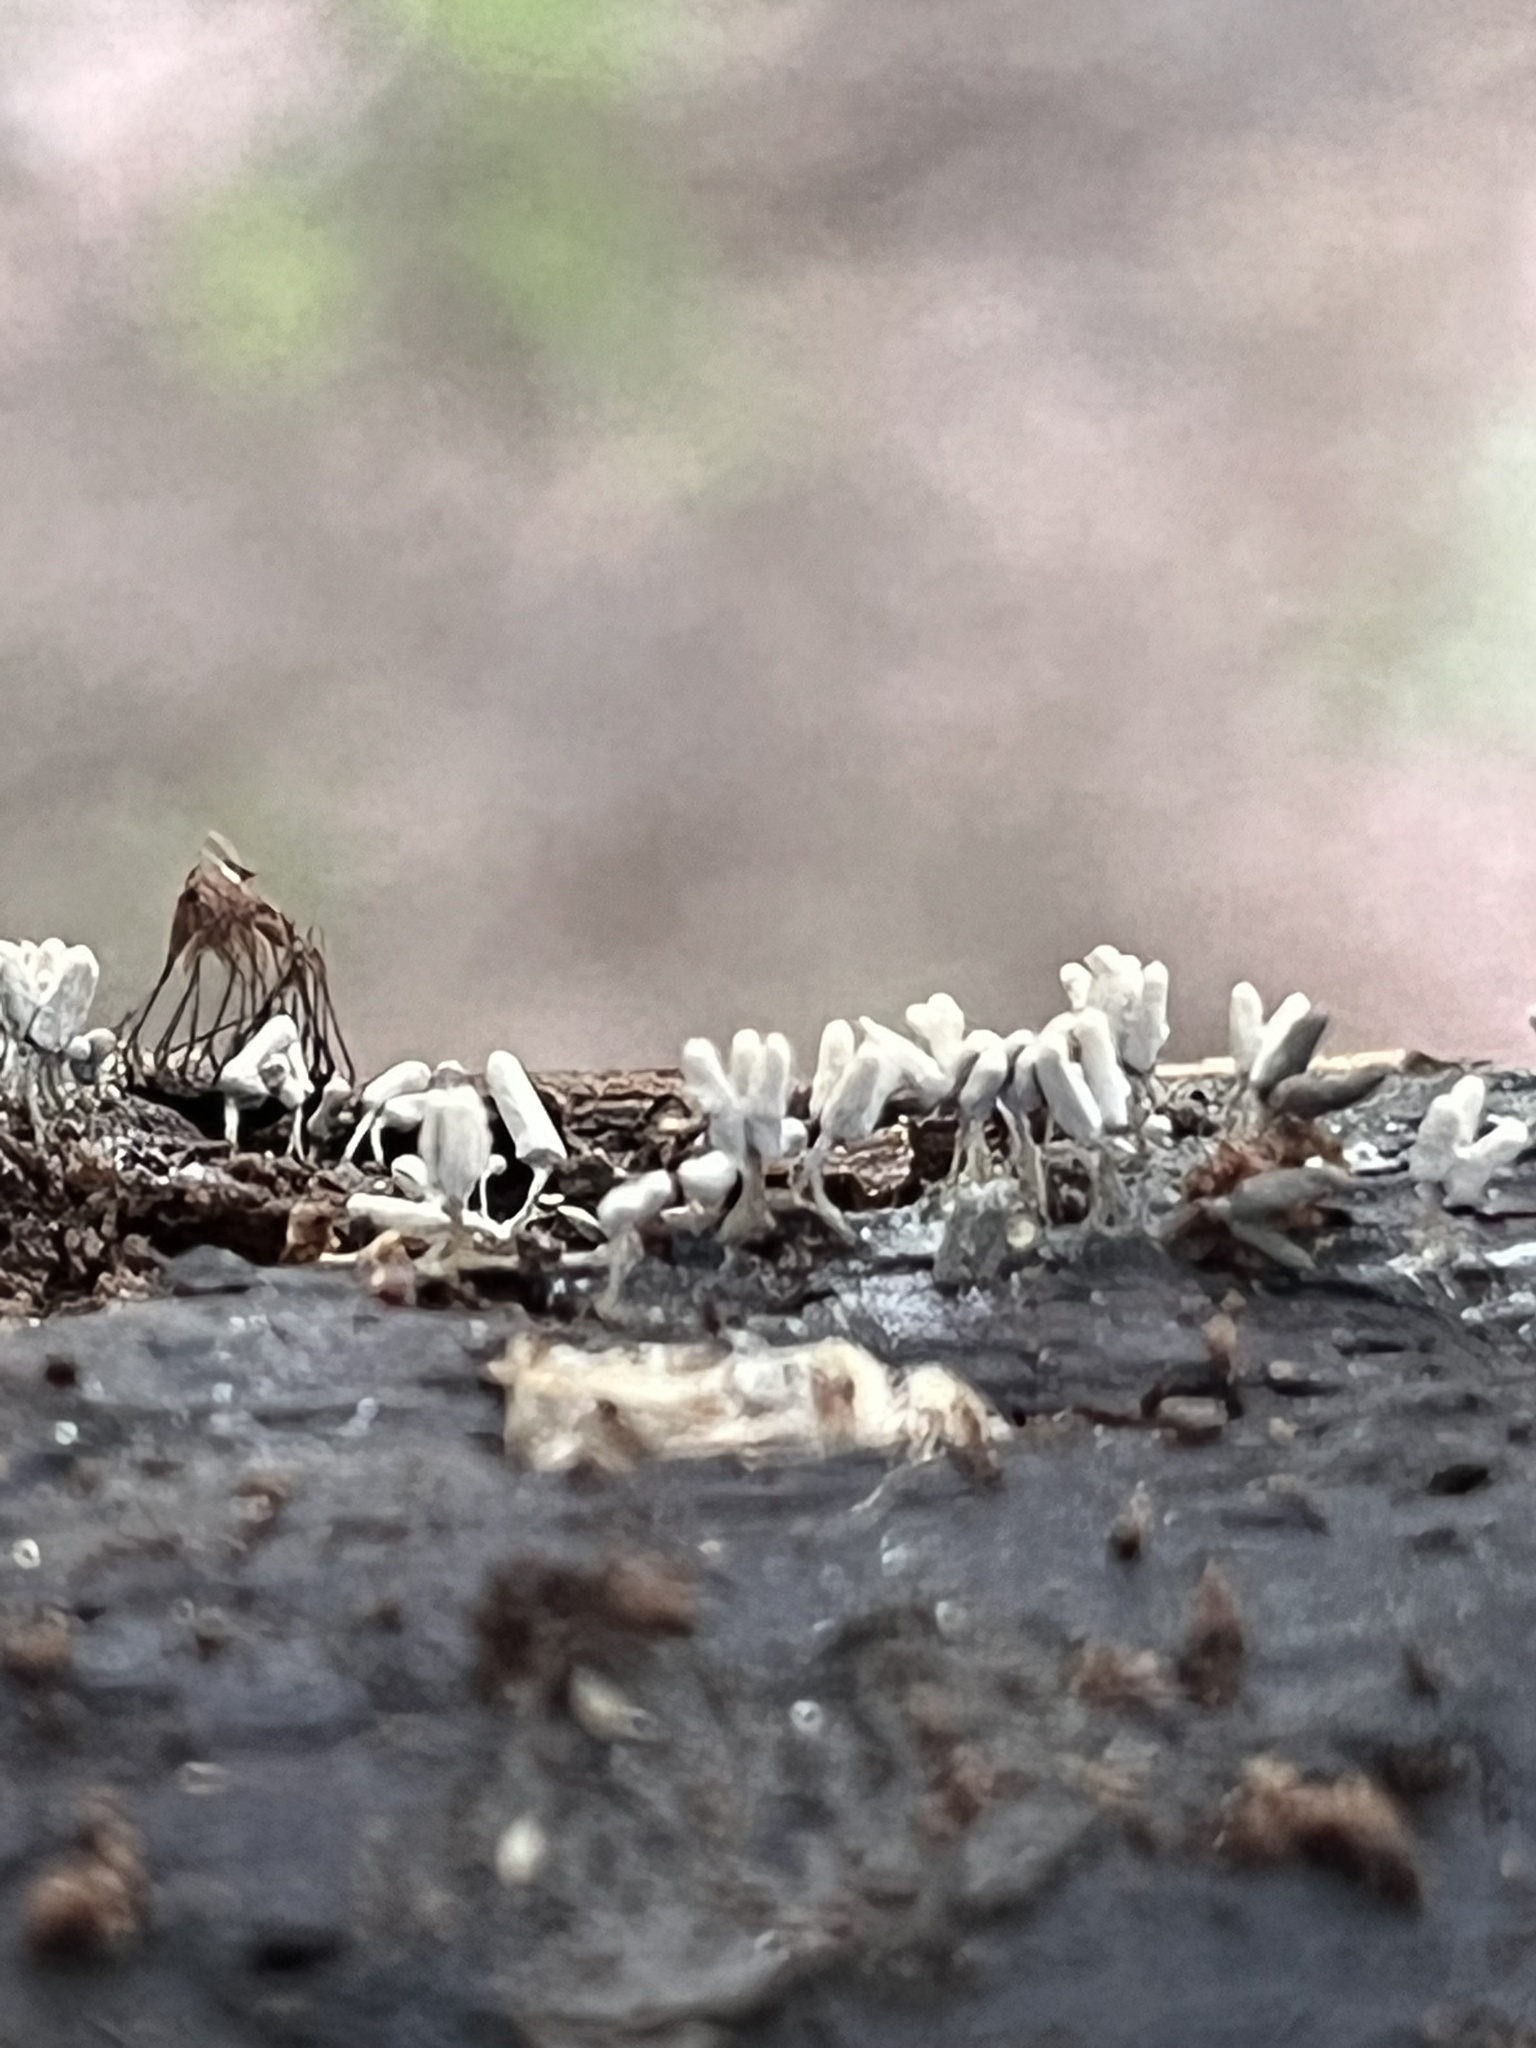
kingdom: Protozoa
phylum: Mycetozoa
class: Myxomycetes
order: Trichiales
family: Arcyriaceae
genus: Arcyria
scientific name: Arcyria cinerea
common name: White carnival candy slime mold
